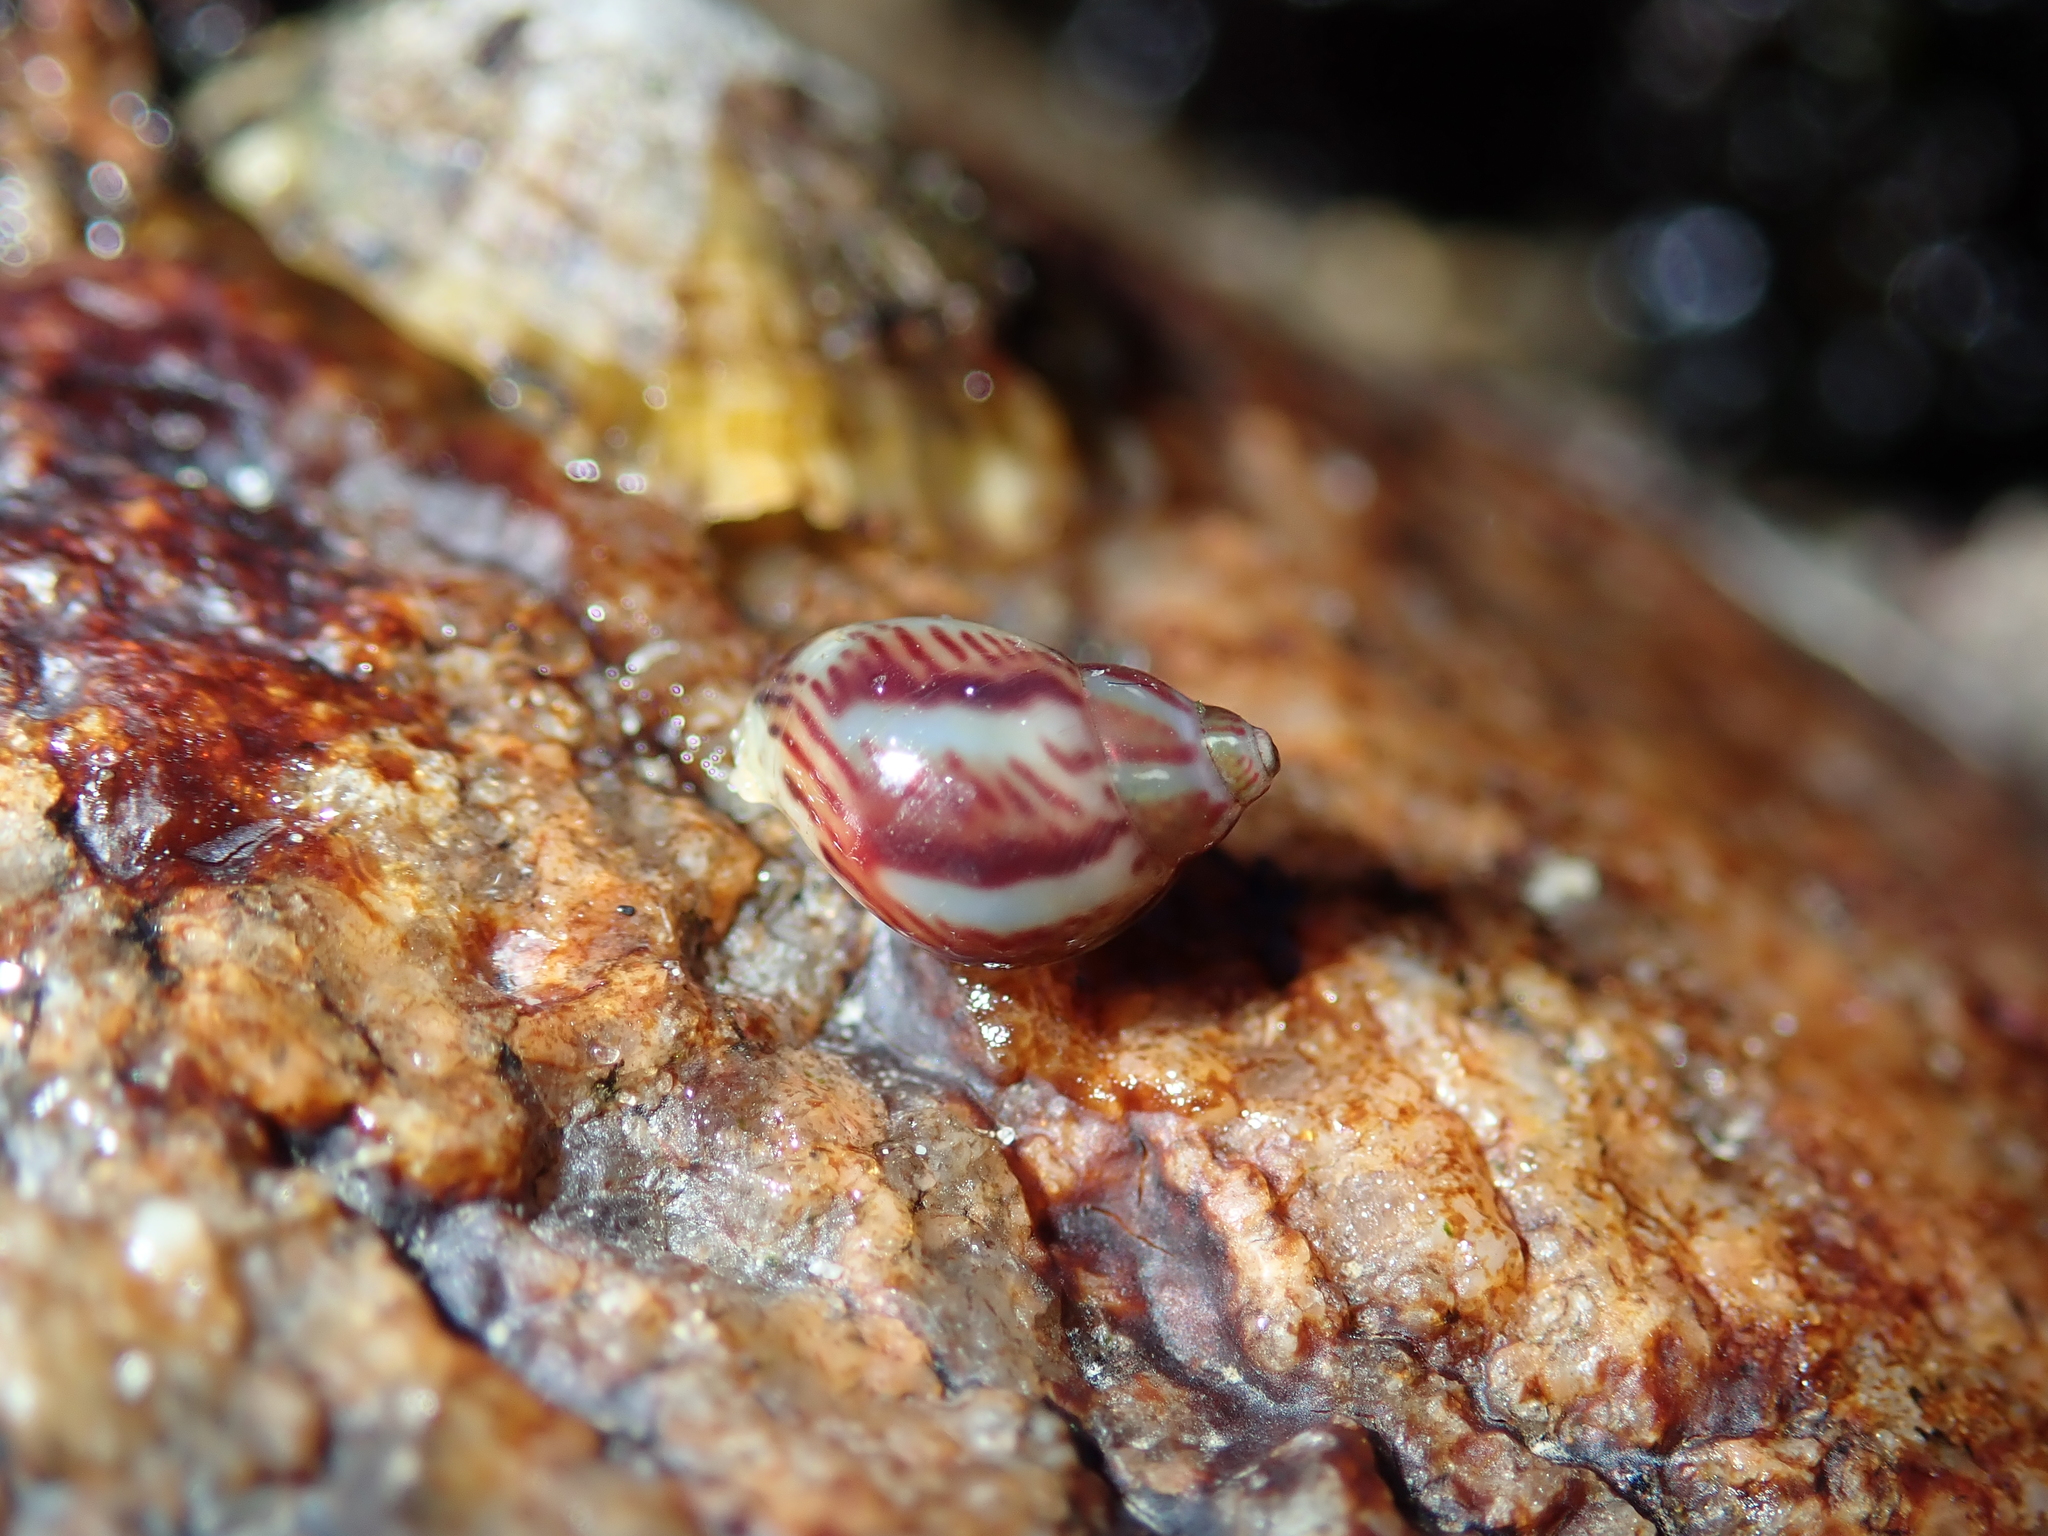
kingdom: Animalia
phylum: Mollusca
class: Gastropoda
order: Trochida
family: Phasianellidae
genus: Tricolia
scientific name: Tricolia pullus
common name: Pheasant shell
